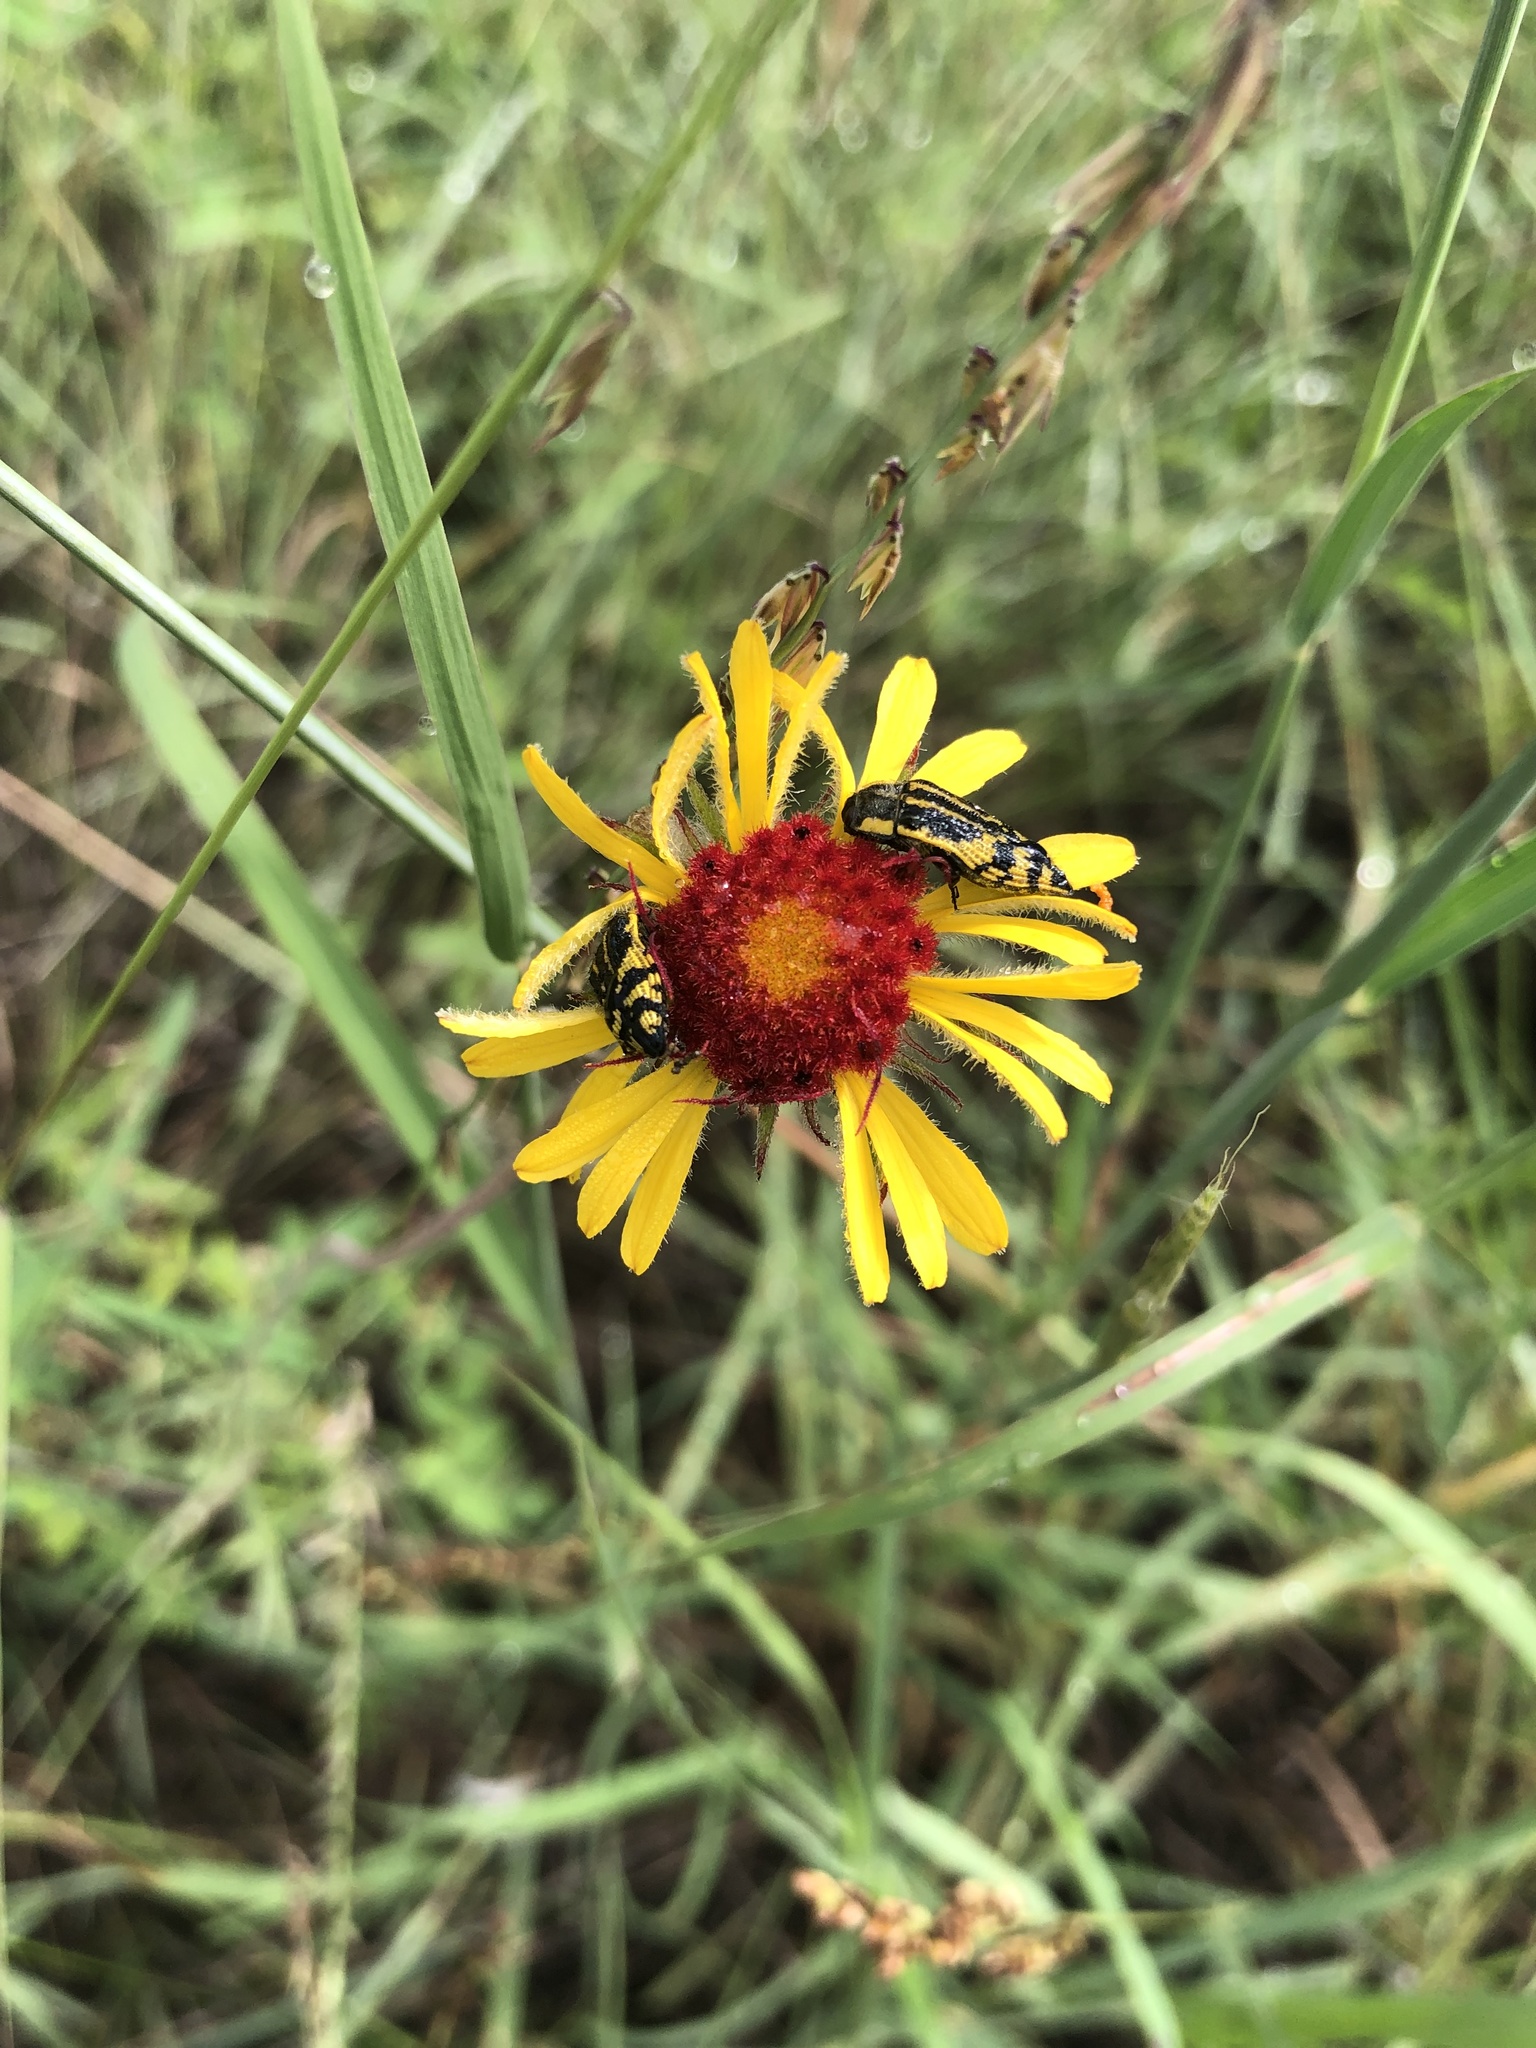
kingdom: Animalia
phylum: Arthropoda
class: Insecta
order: Coleoptera
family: Buprestidae
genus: Acmaeodera
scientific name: Acmaeodera amplicollis
